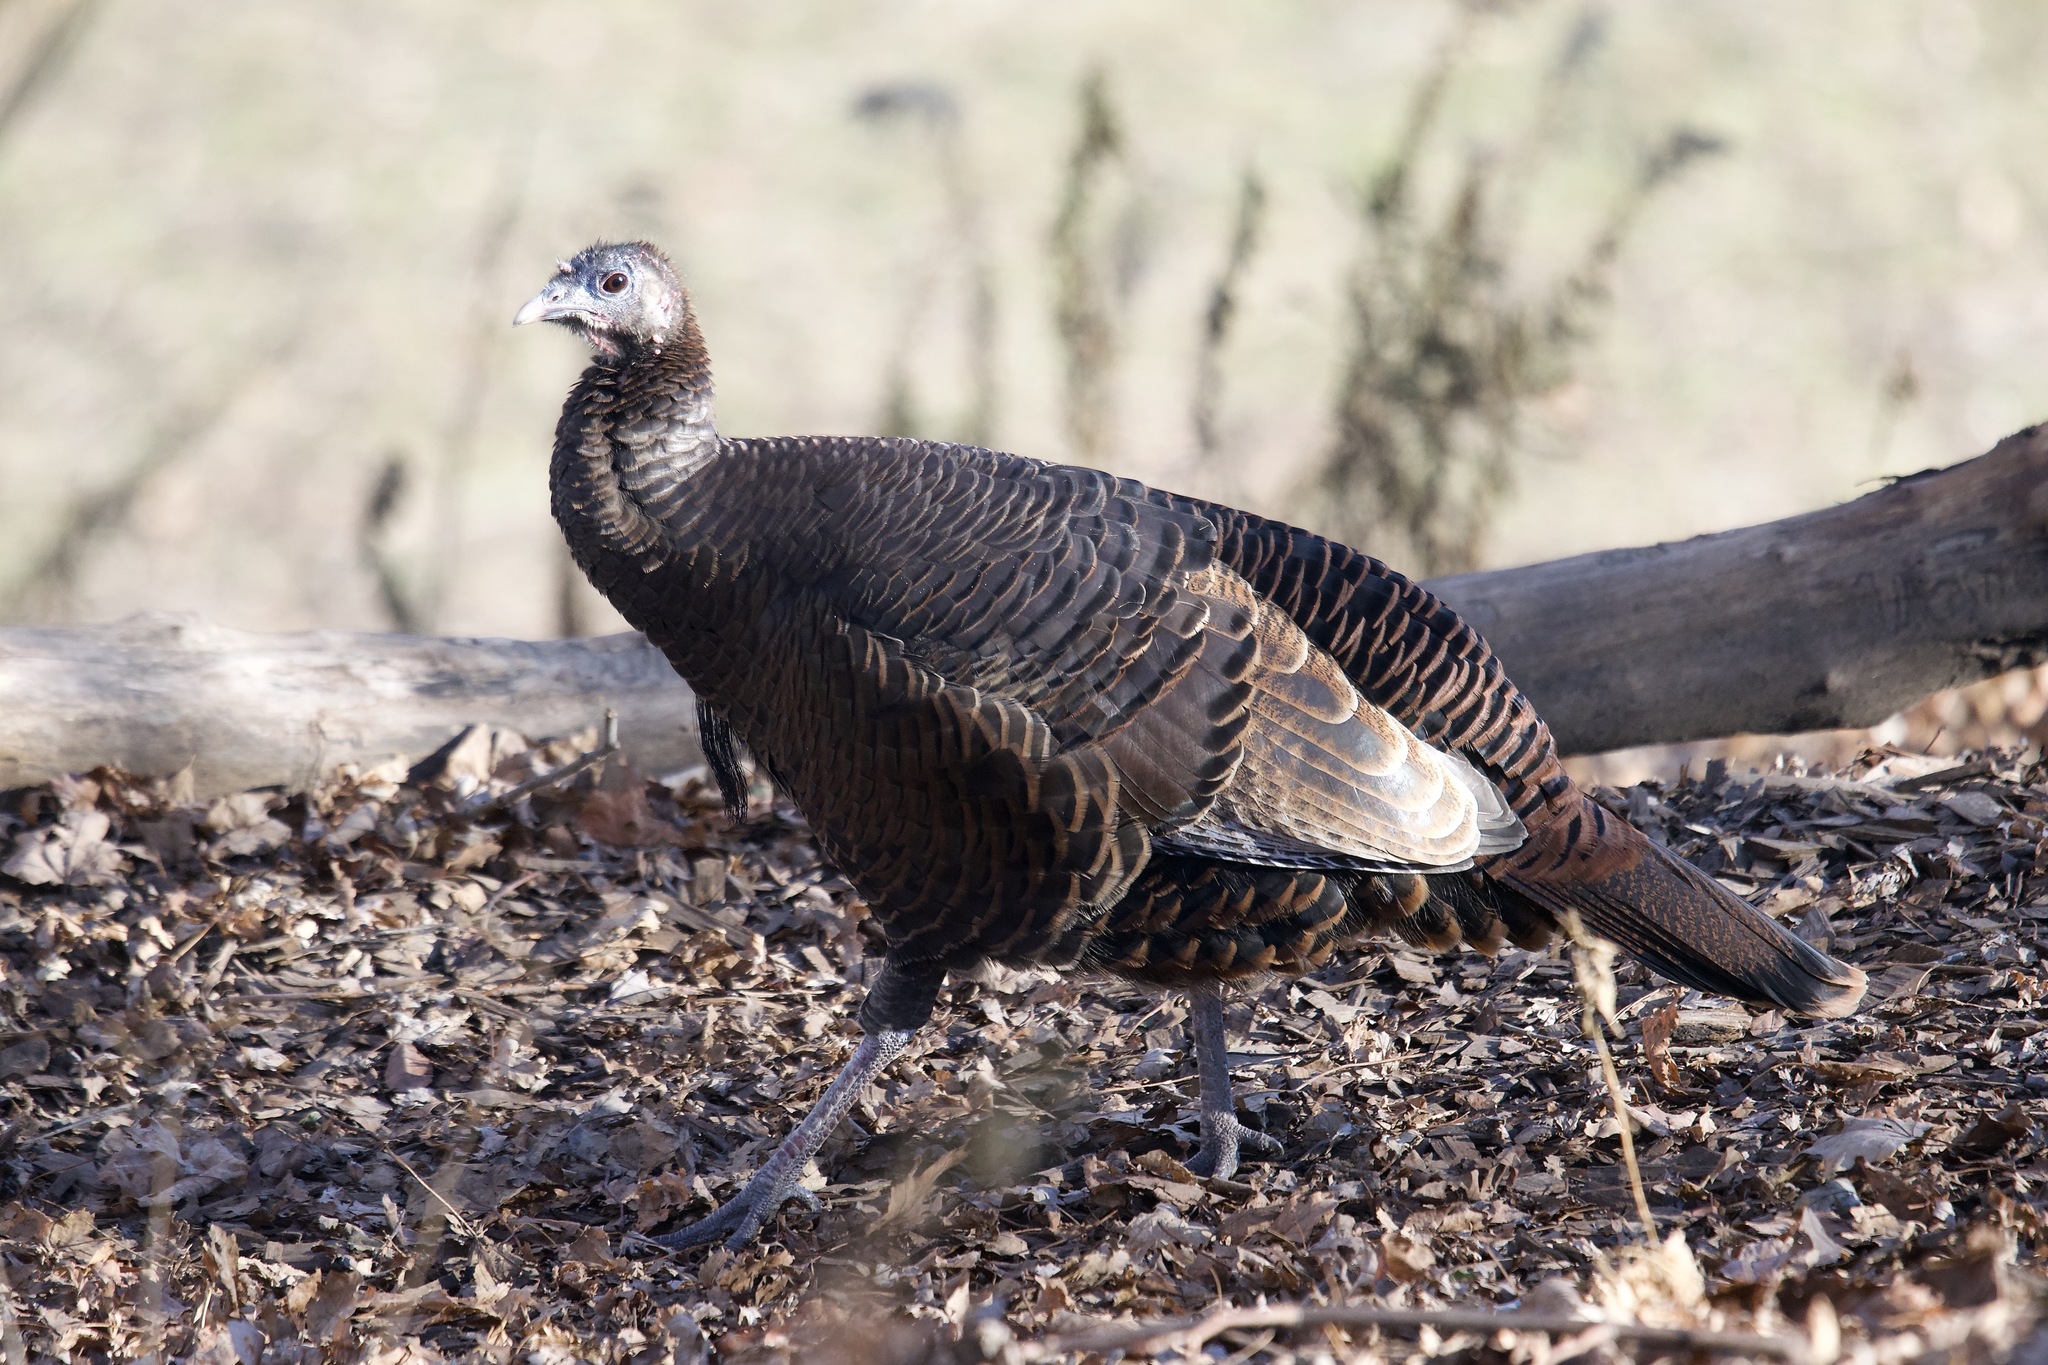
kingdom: Animalia
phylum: Chordata
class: Aves
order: Galliformes
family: Phasianidae
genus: Meleagris
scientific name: Meleagris gallopavo
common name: Wild turkey
